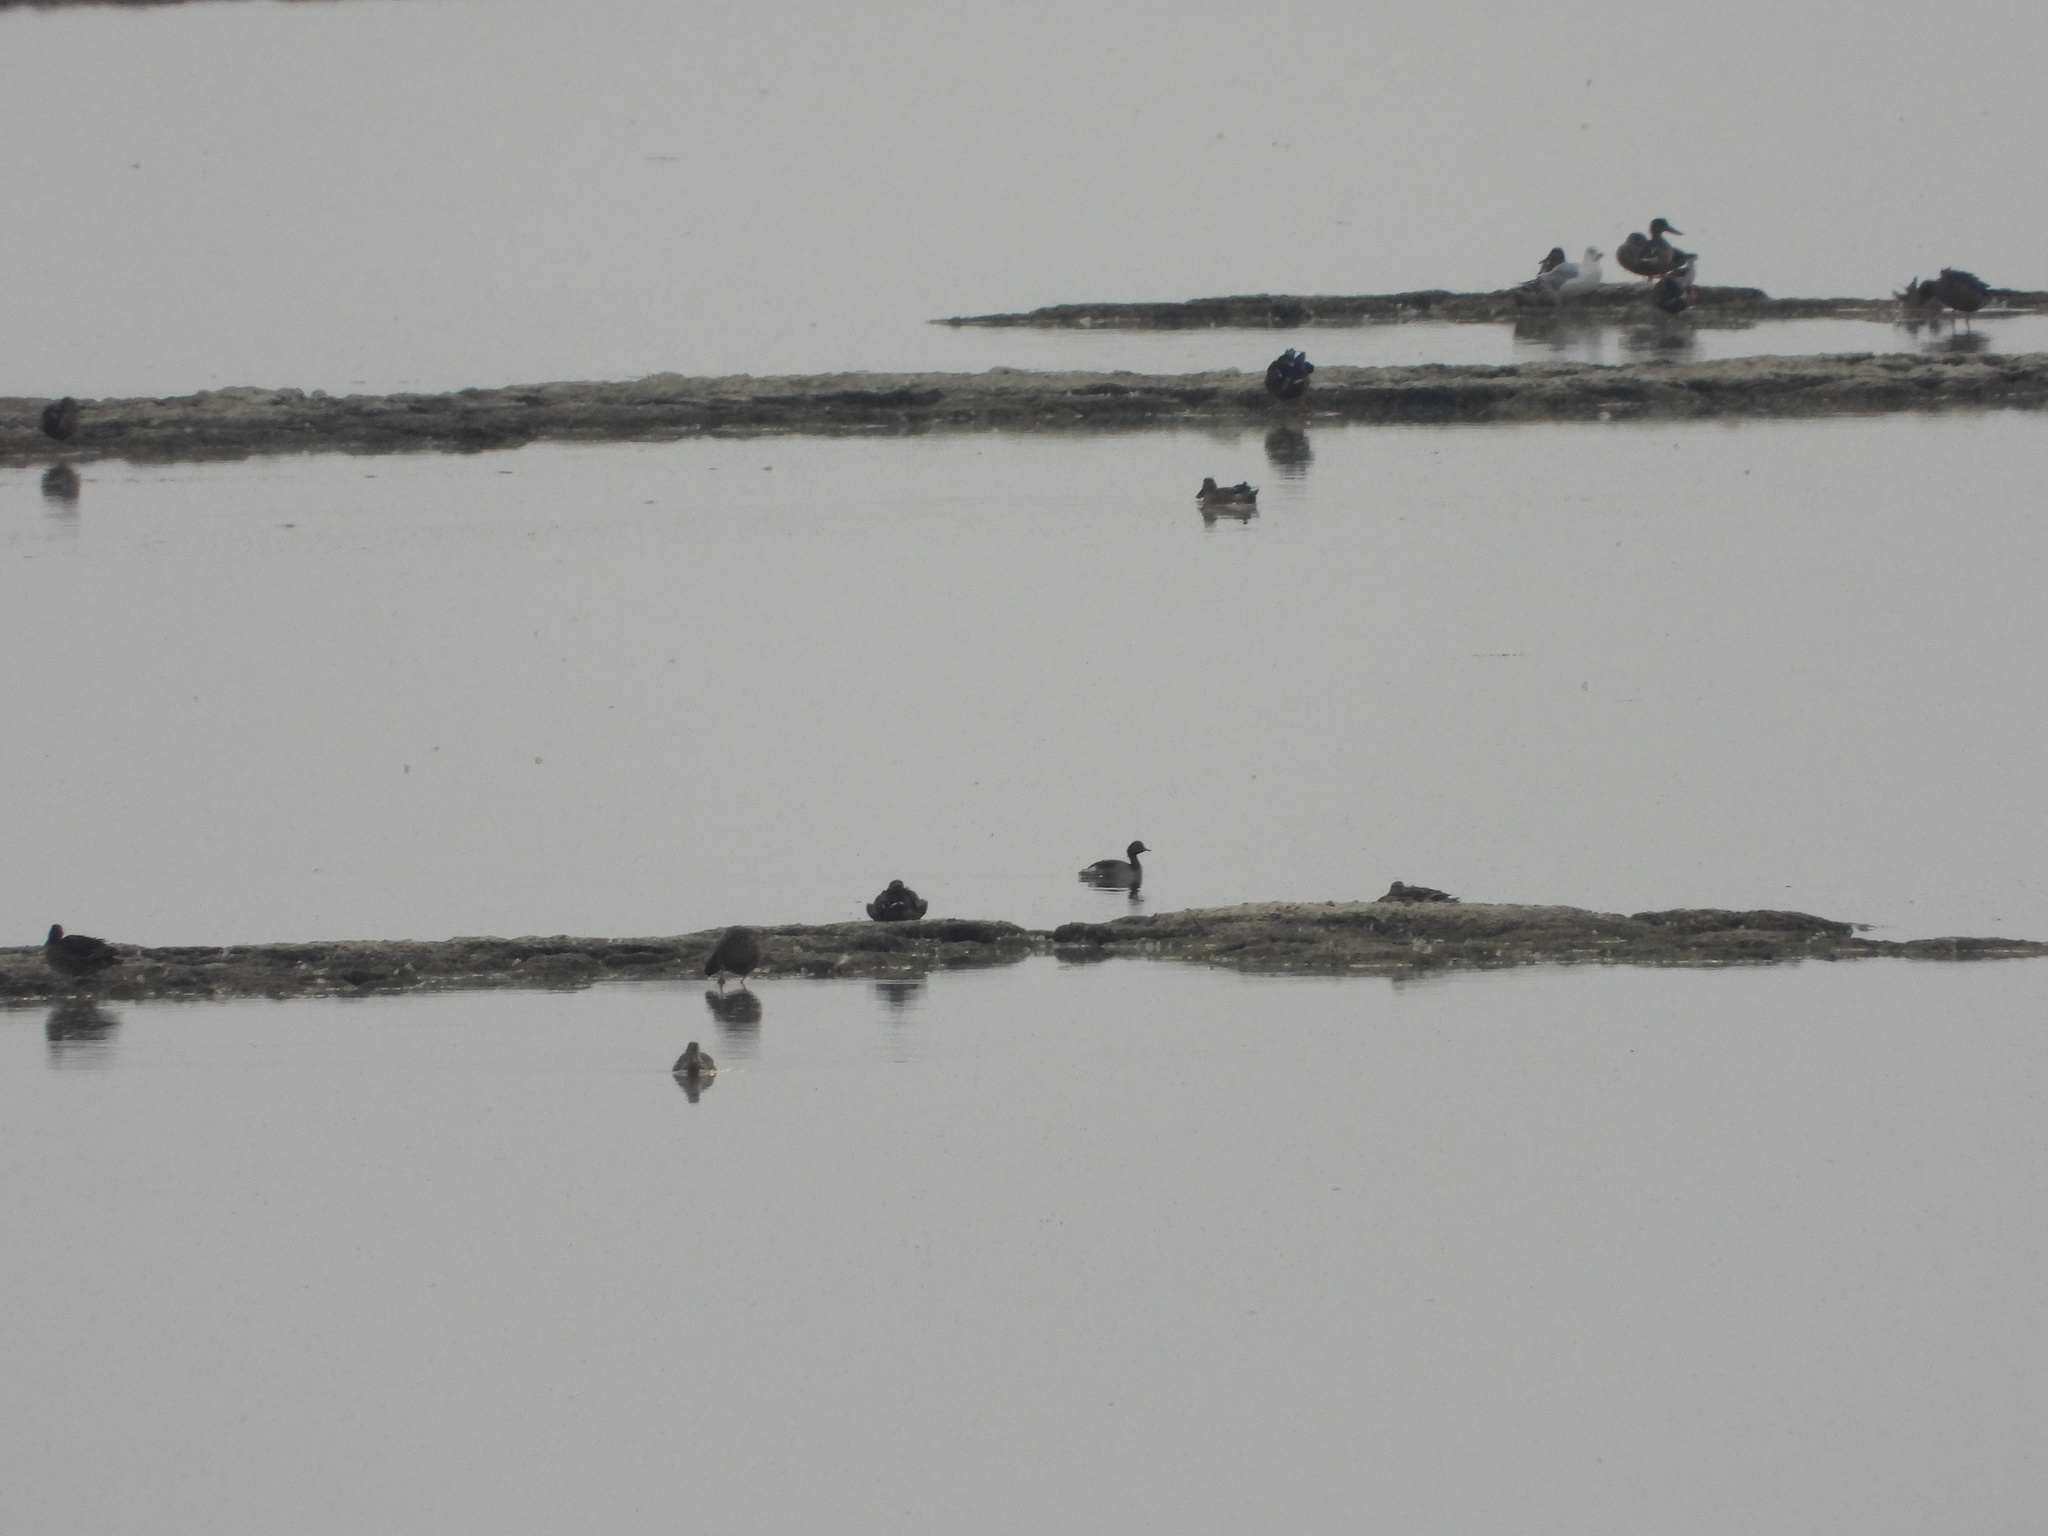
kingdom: Animalia
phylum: Chordata
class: Aves
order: Podicipediformes
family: Podicipedidae
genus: Podiceps
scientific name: Podiceps nigricollis
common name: Black-necked grebe
